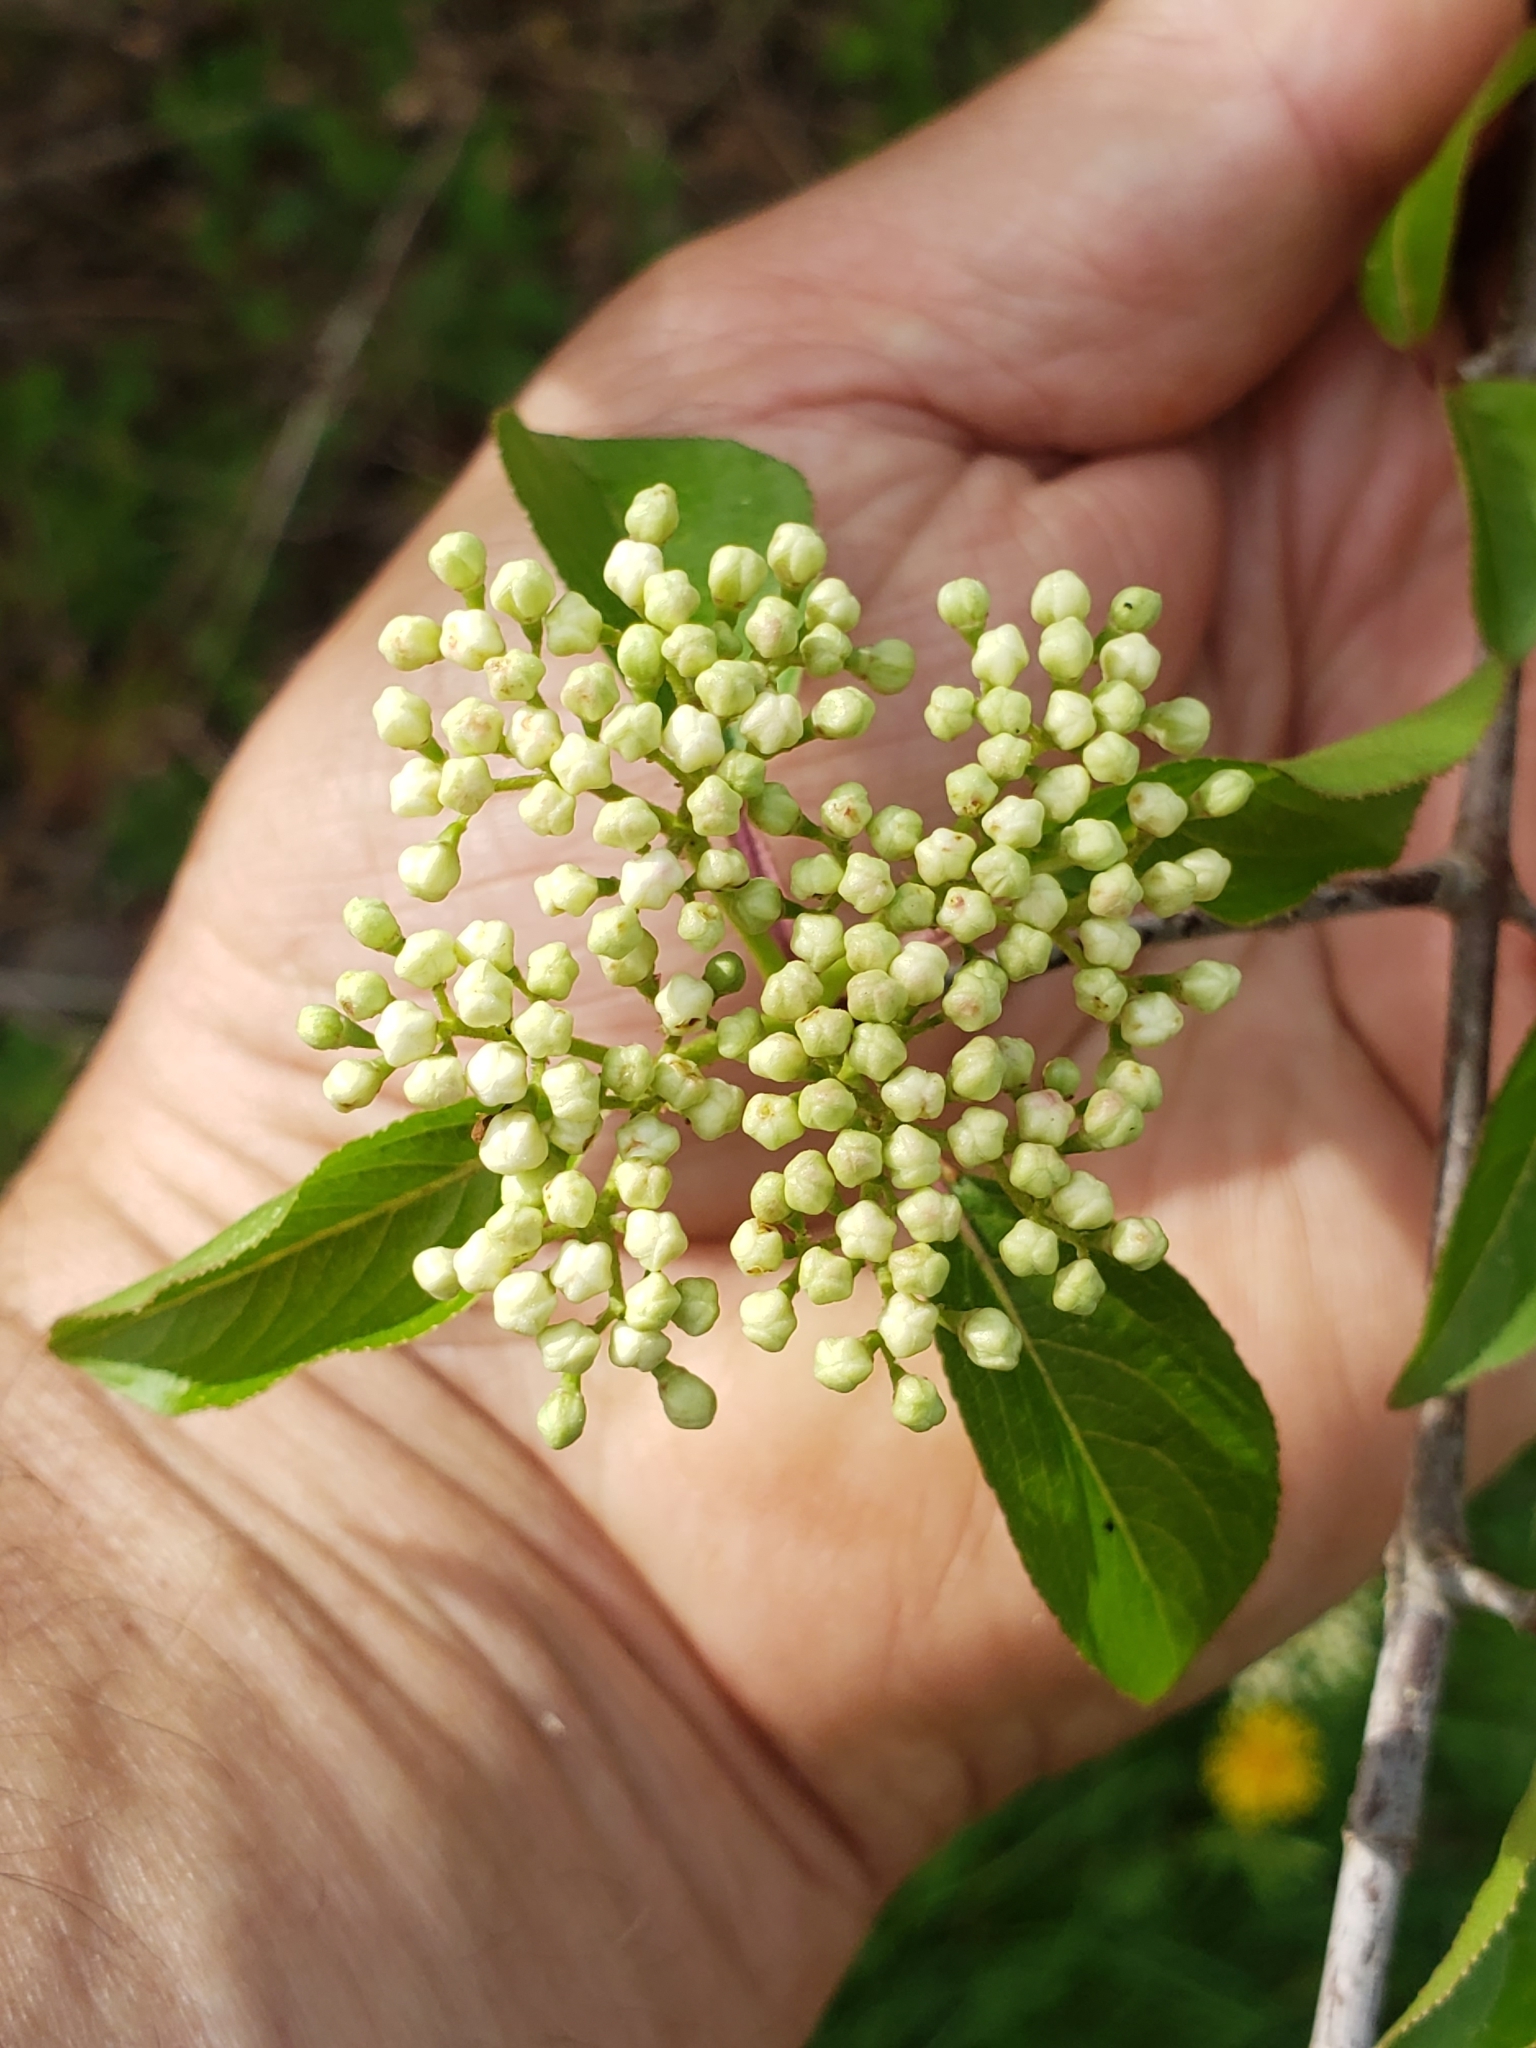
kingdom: Plantae
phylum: Tracheophyta
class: Magnoliopsida
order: Dipsacales
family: Viburnaceae
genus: Viburnum
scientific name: Viburnum prunifolium
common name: Black haw
